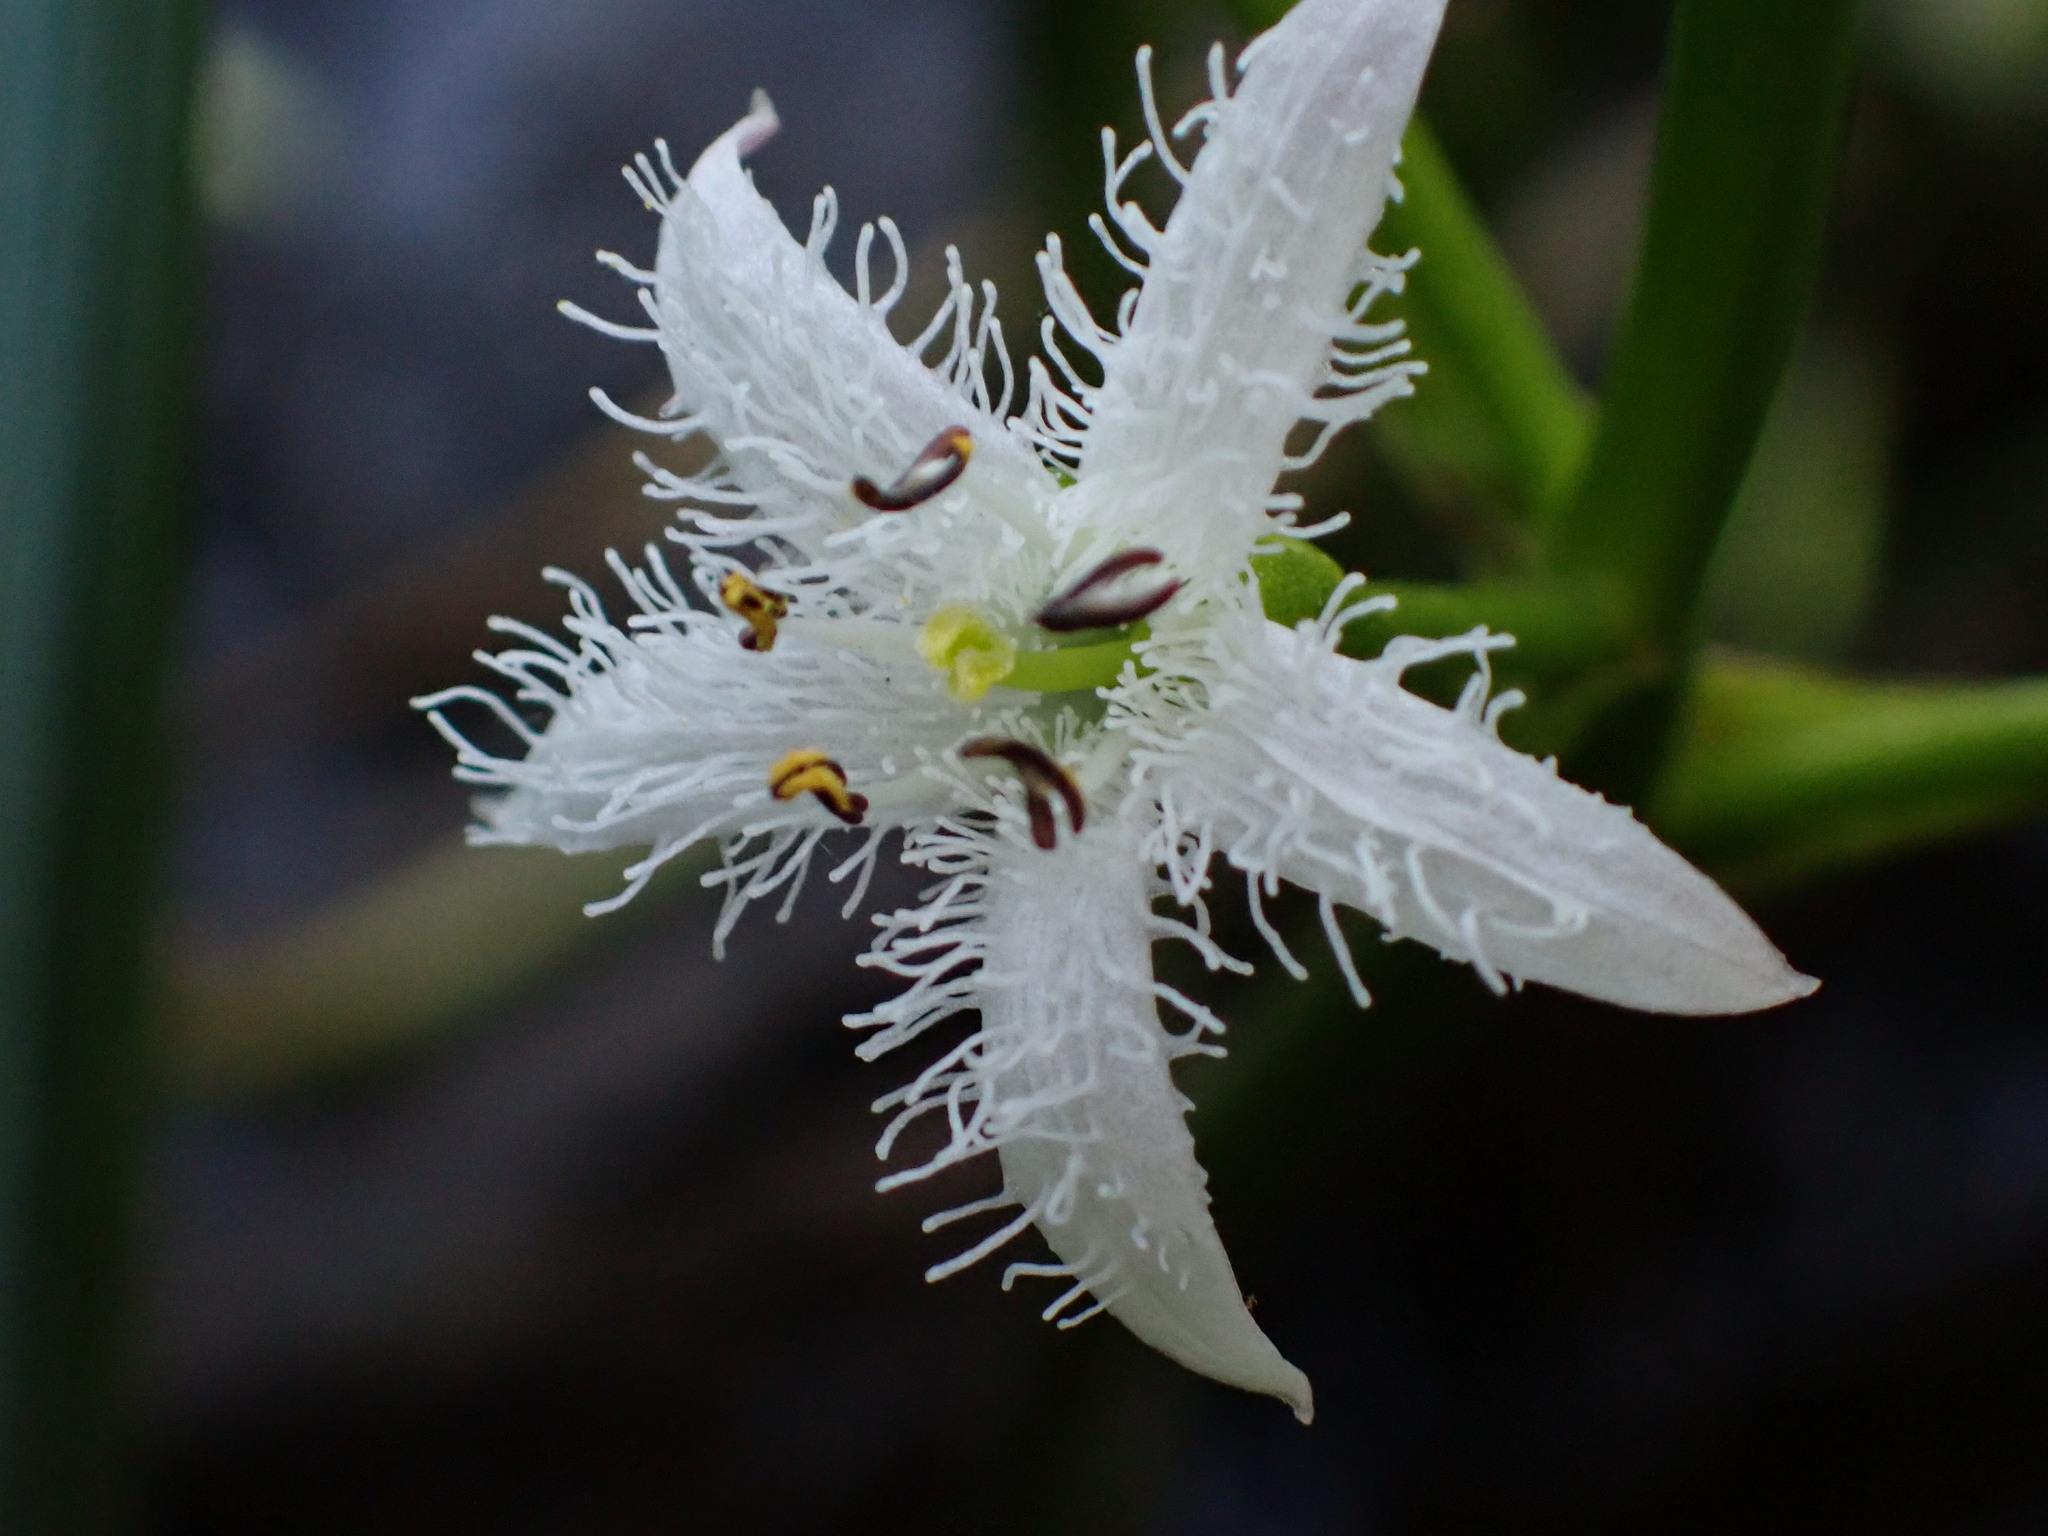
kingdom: Plantae
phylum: Tracheophyta
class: Magnoliopsida
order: Asterales
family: Menyanthaceae
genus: Menyanthes
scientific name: Menyanthes trifoliata
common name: Bogbean
